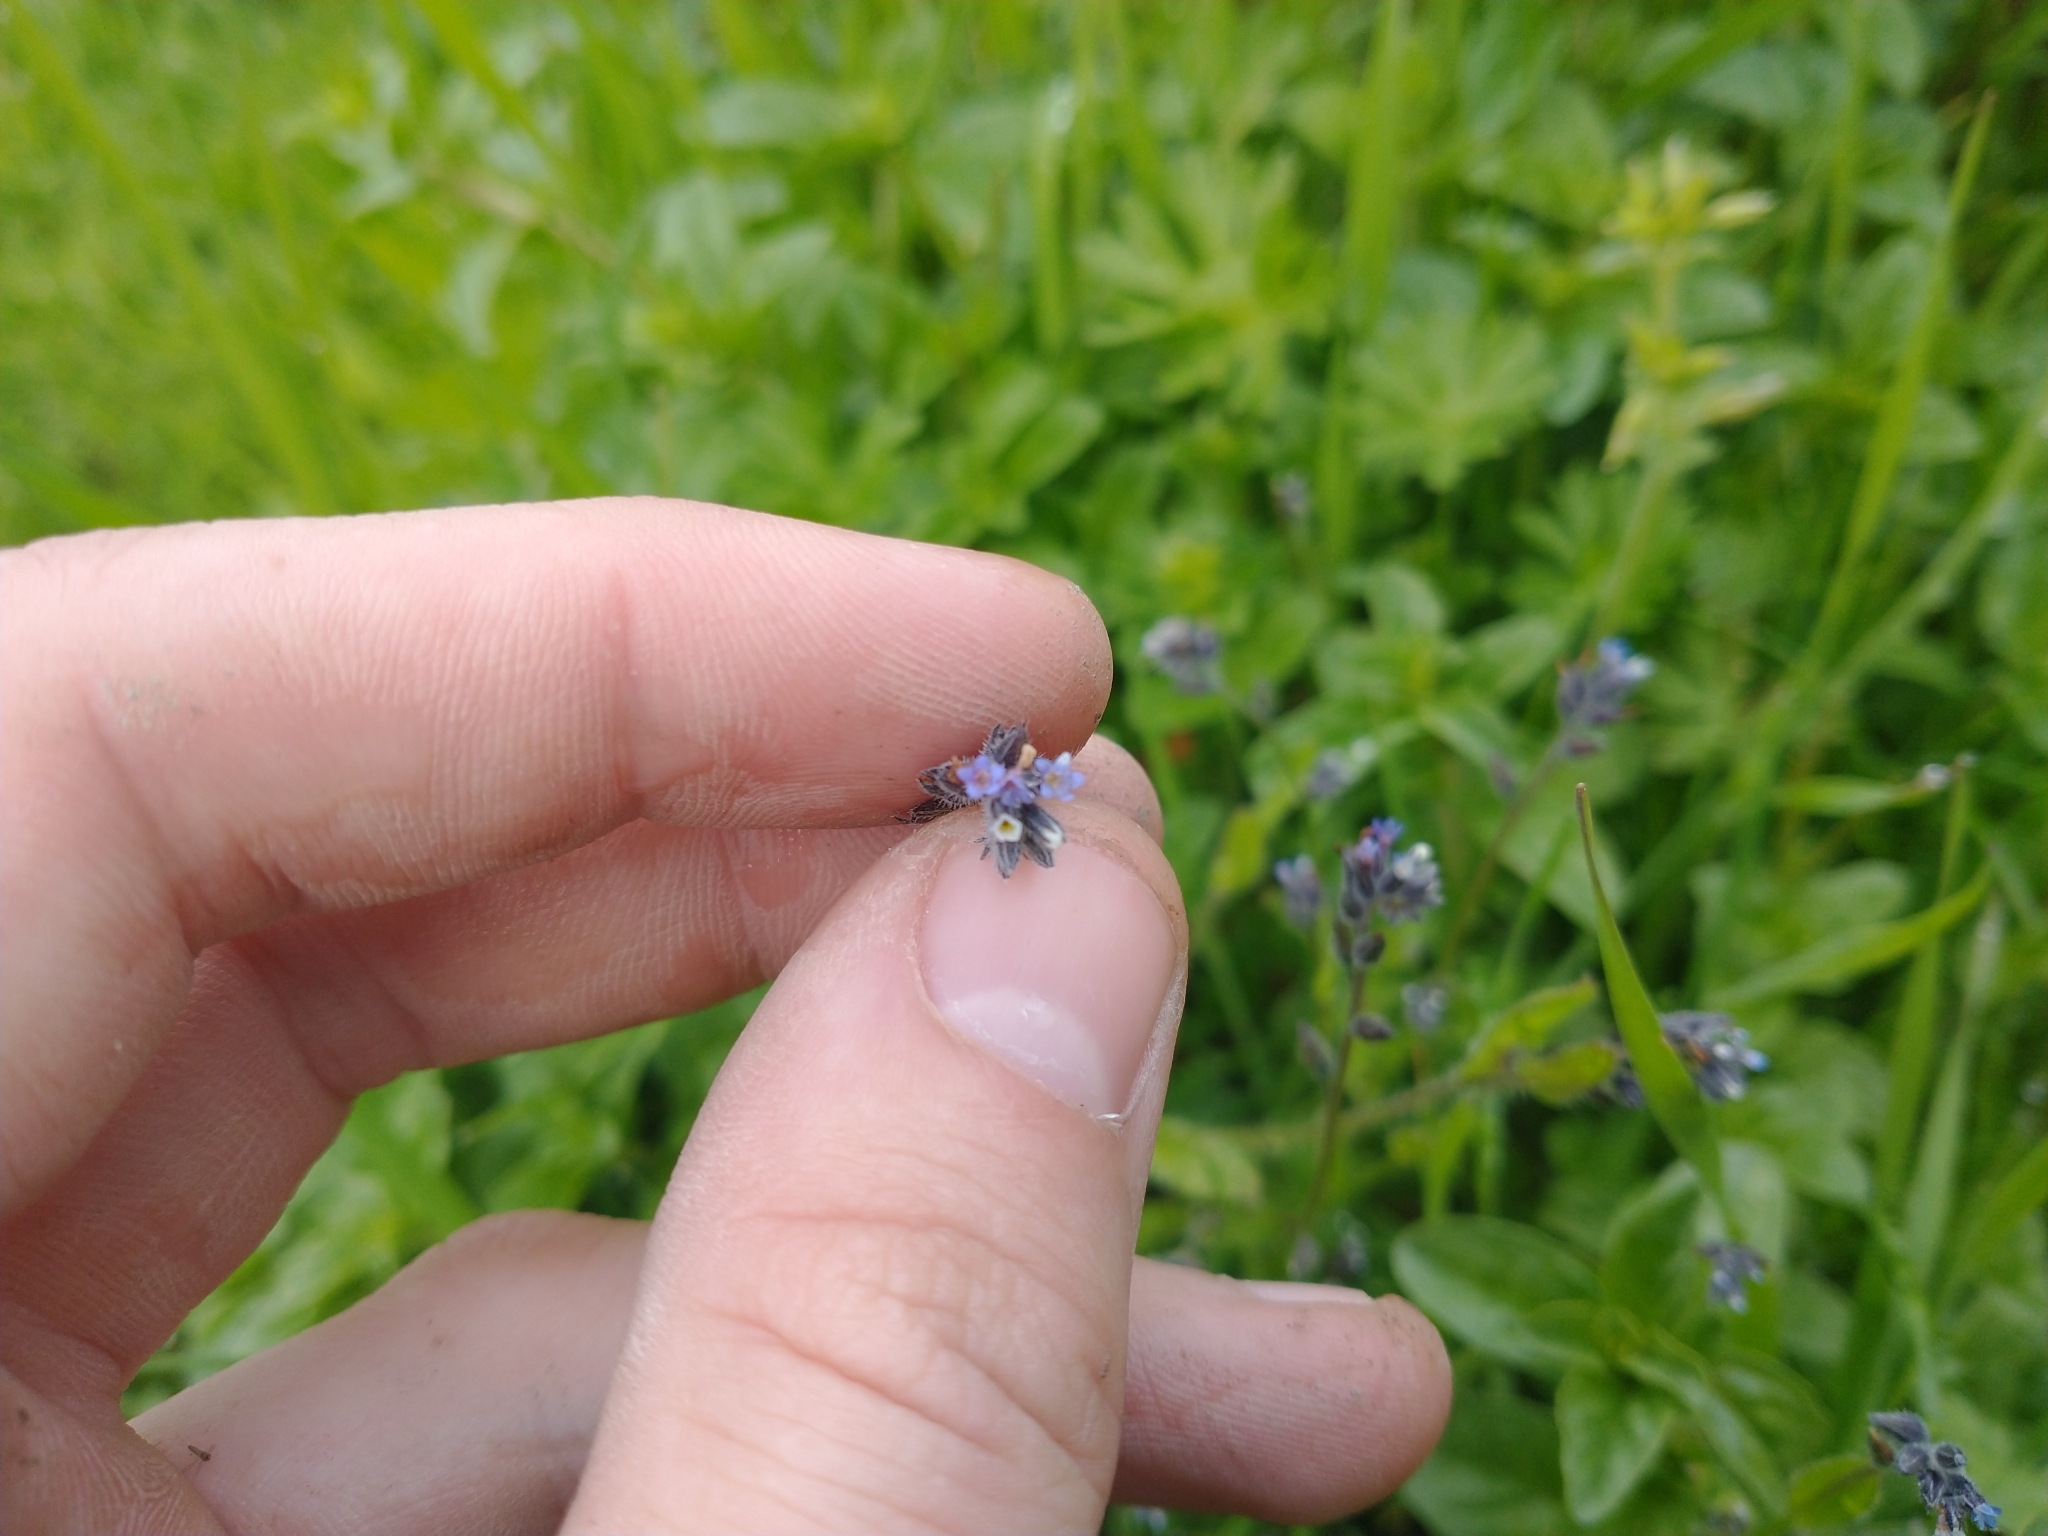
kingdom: Plantae
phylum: Tracheophyta
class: Magnoliopsida
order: Boraginales
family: Boraginaceae
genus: Myosotis
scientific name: Myosotis discolor
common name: Changing forget-me-not
